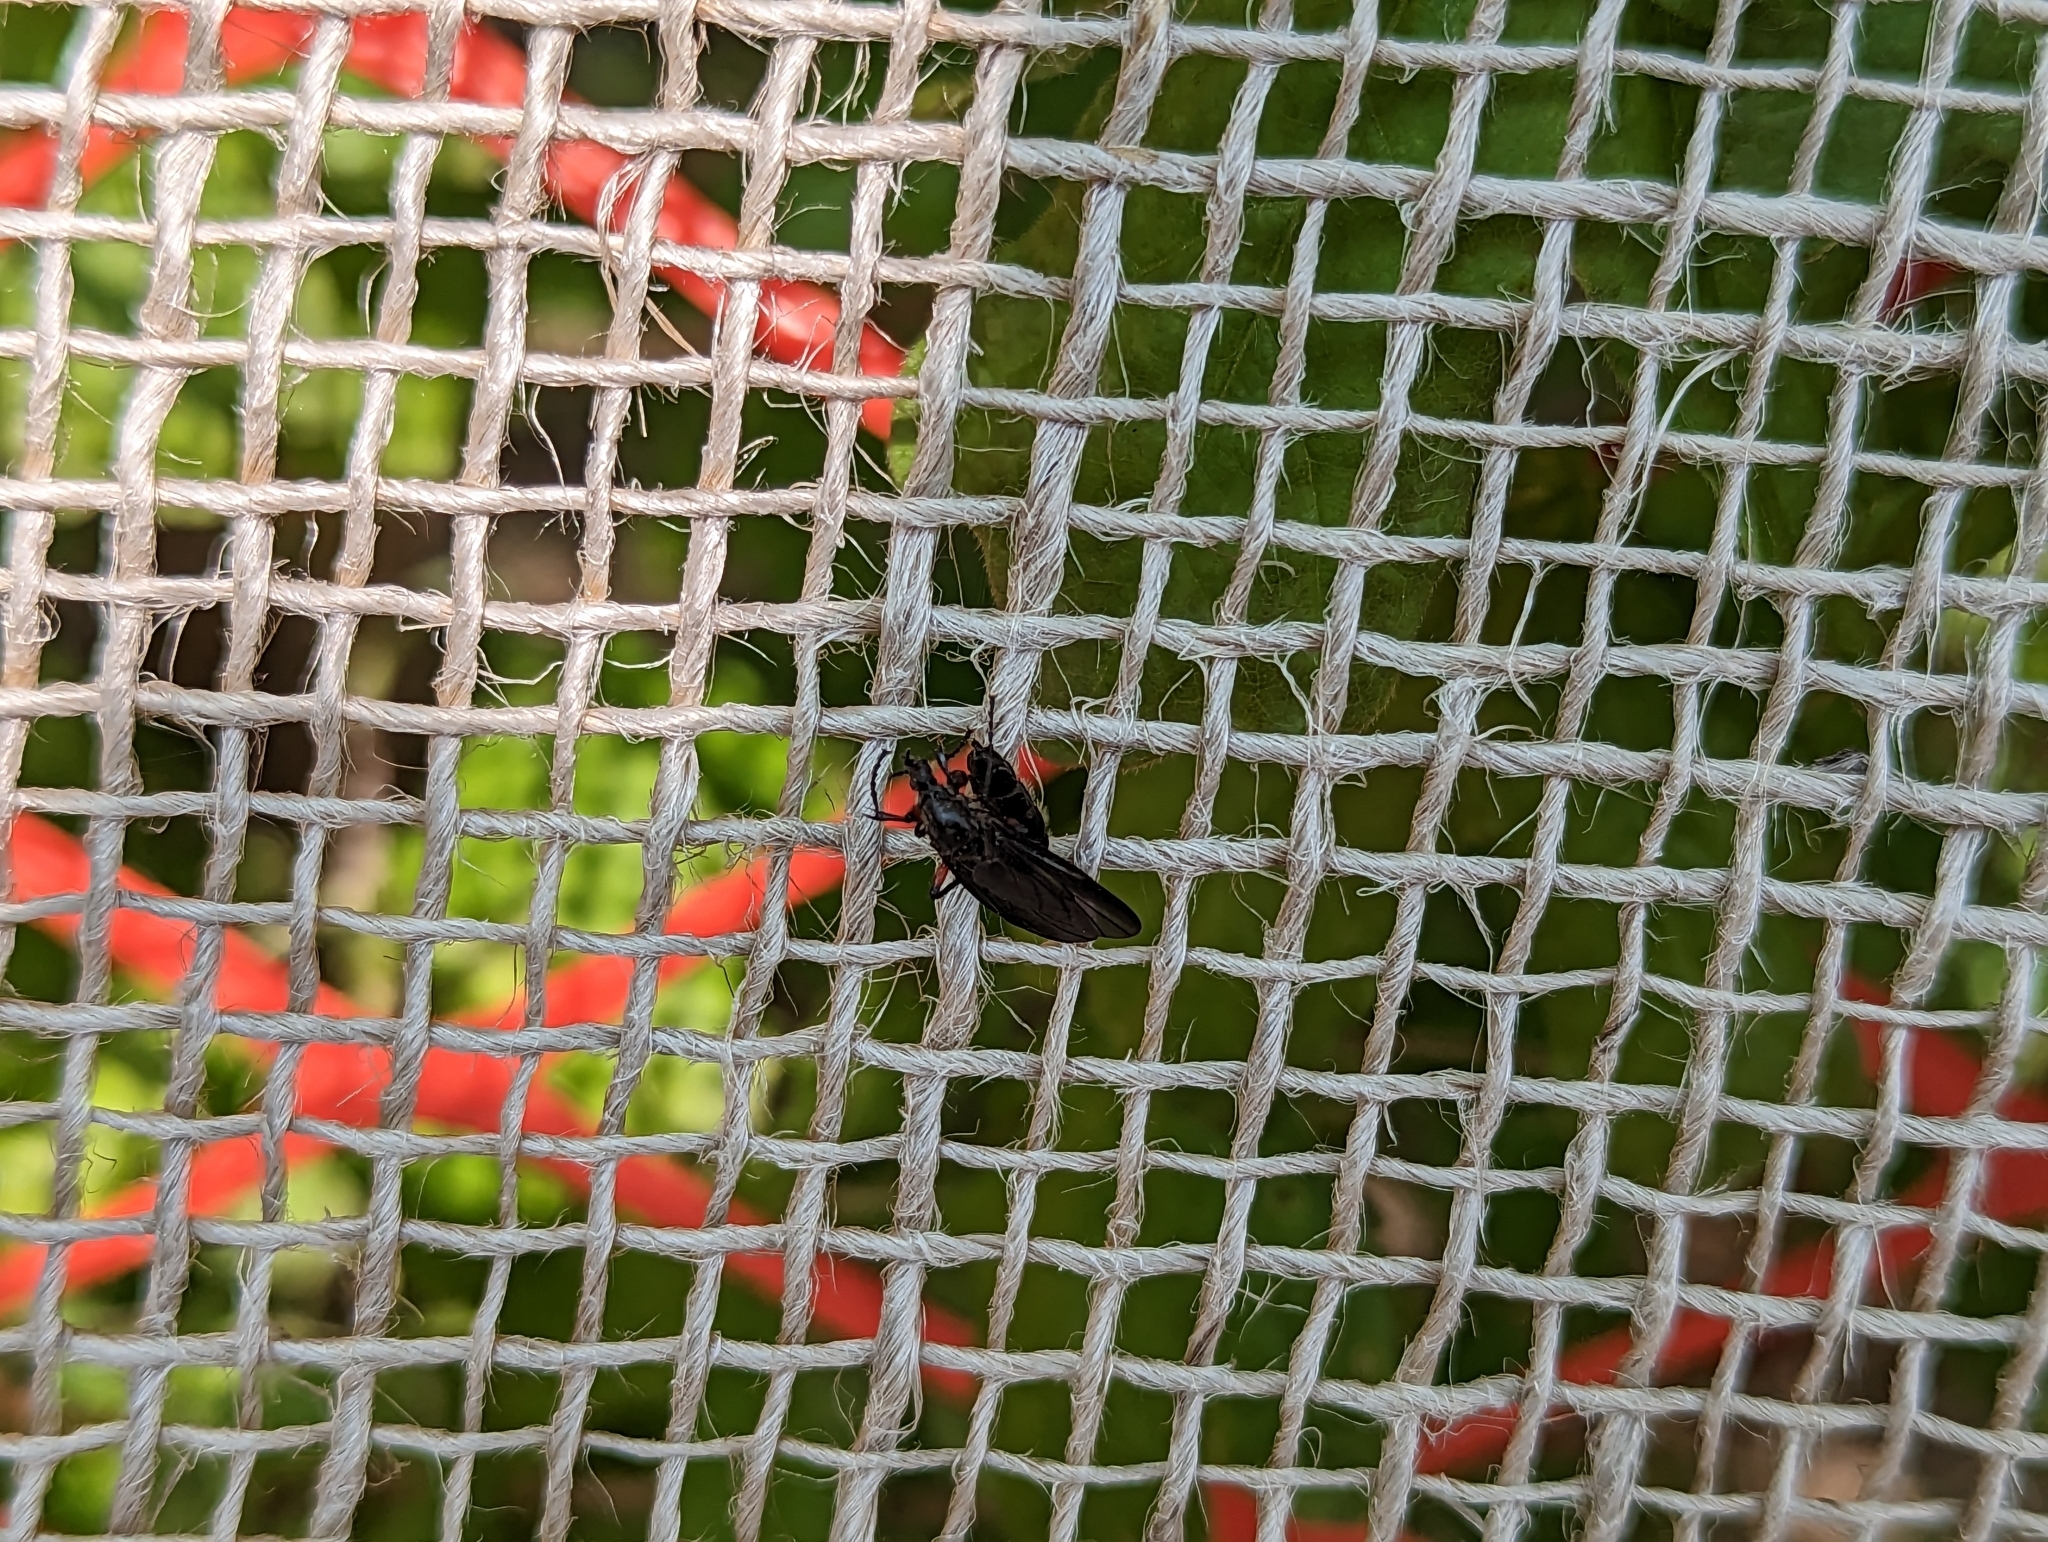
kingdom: Animalia
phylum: Arthropoda
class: Insecta
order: Diptera
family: Bibionidae
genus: Bibio
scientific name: Bibio femoratus
